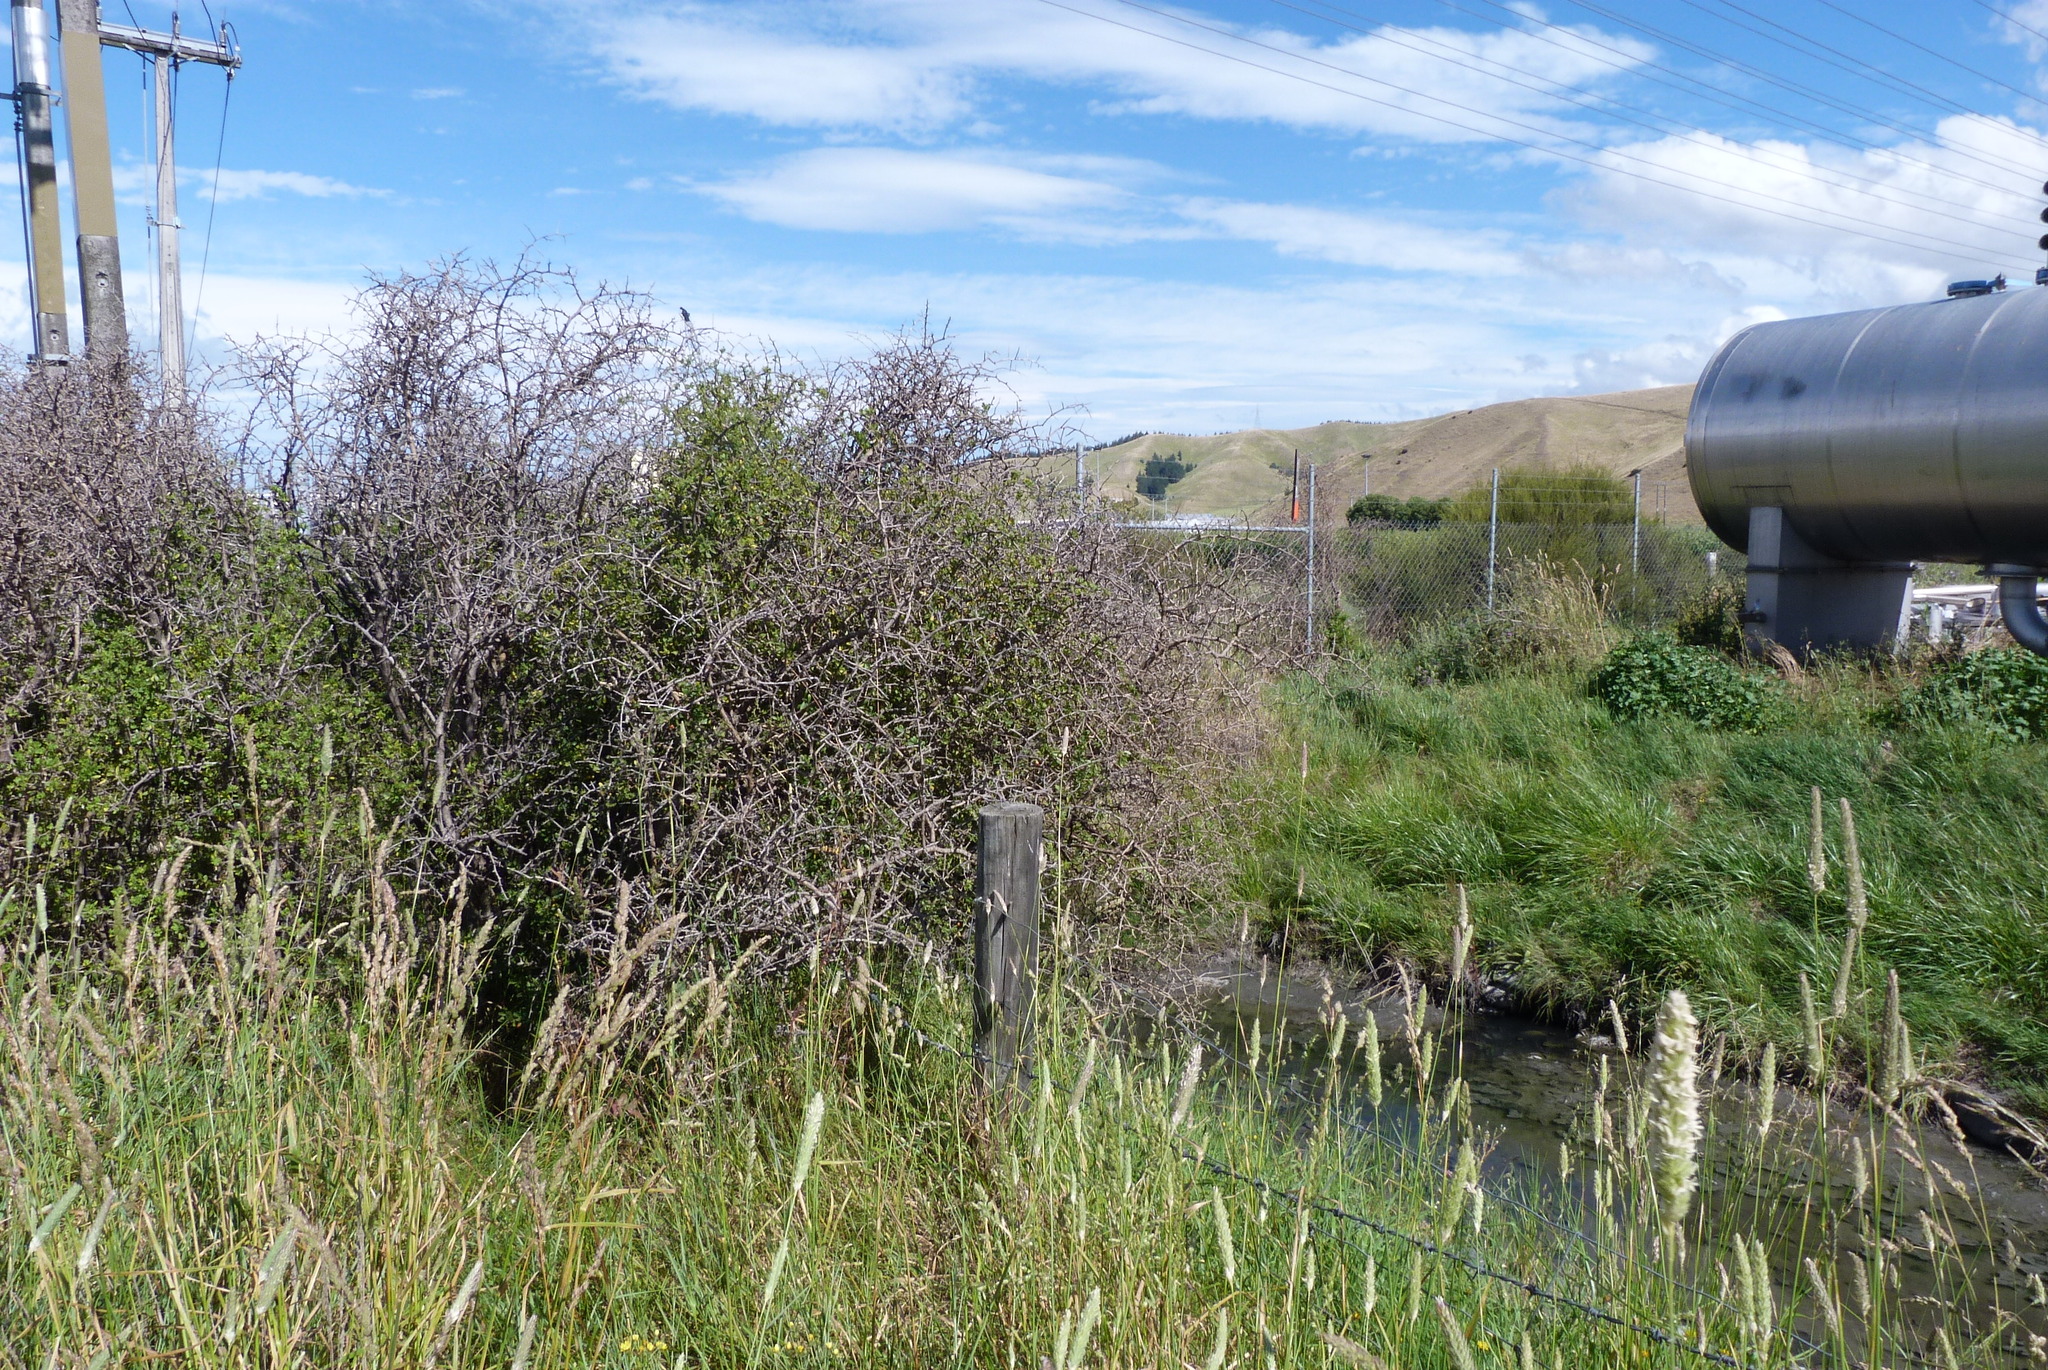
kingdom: Plantae
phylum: Tracheophyta
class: Magnoliopsida
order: Solanales
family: Solanaceae
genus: Lycium
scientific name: Lycium ferocissimum
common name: African boxthorn
